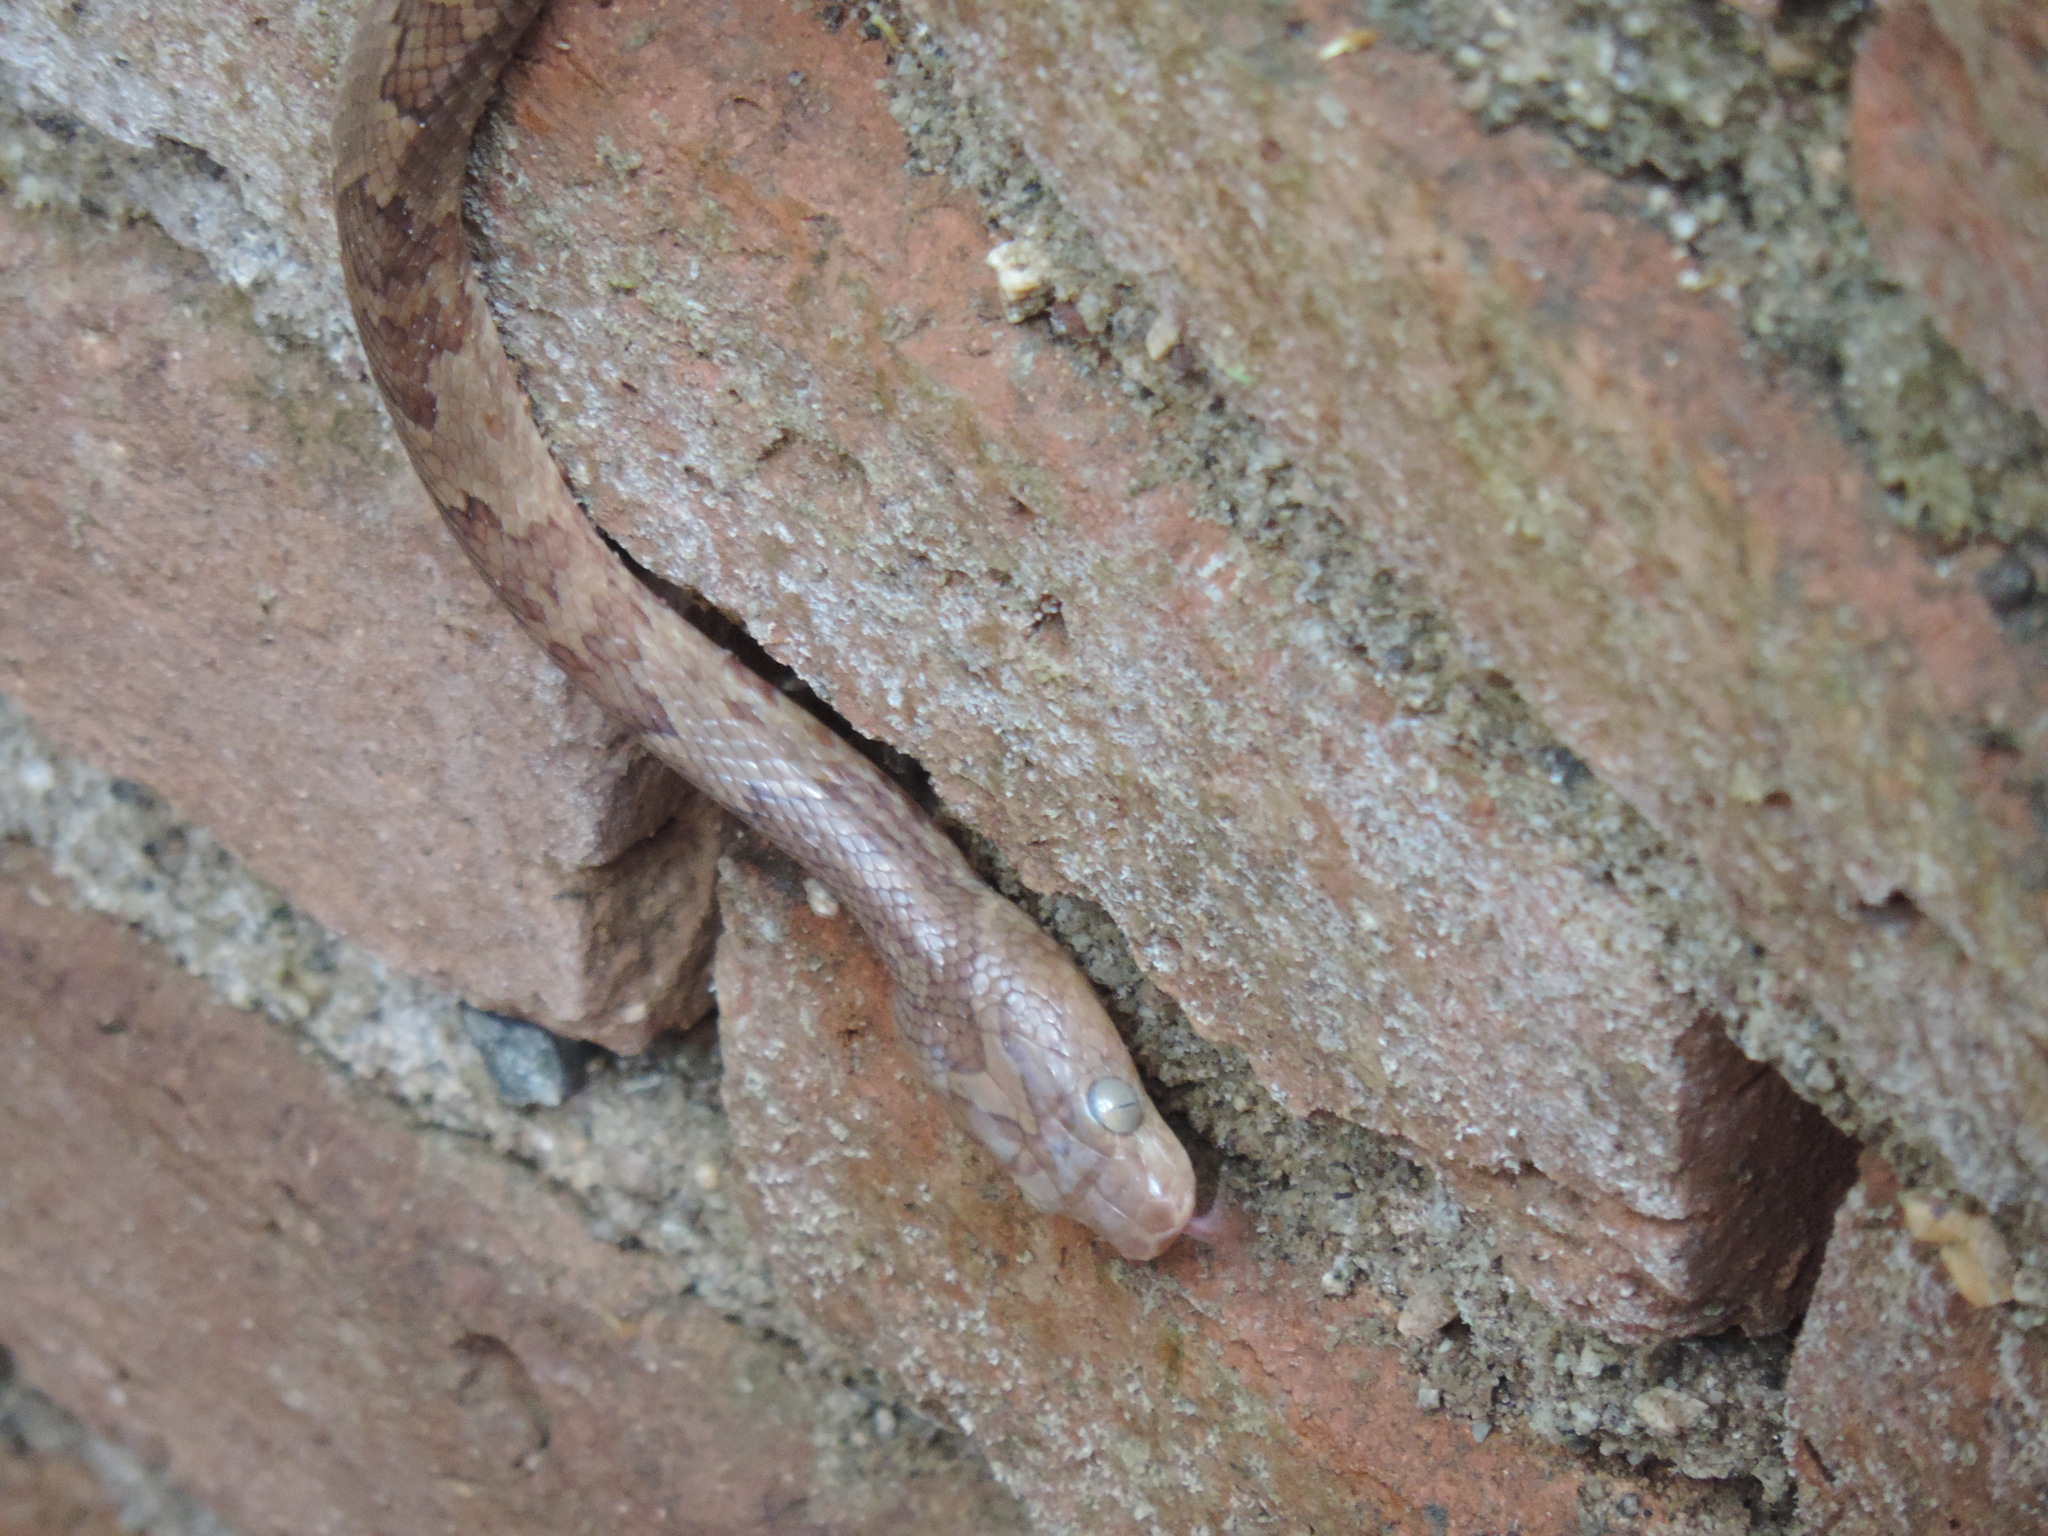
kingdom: Animalia
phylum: Chordata
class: Squamata
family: Colubridae
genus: Trimorphodon
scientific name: Trimorphodon paucimaculatus
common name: Sinaloan lyresnake
